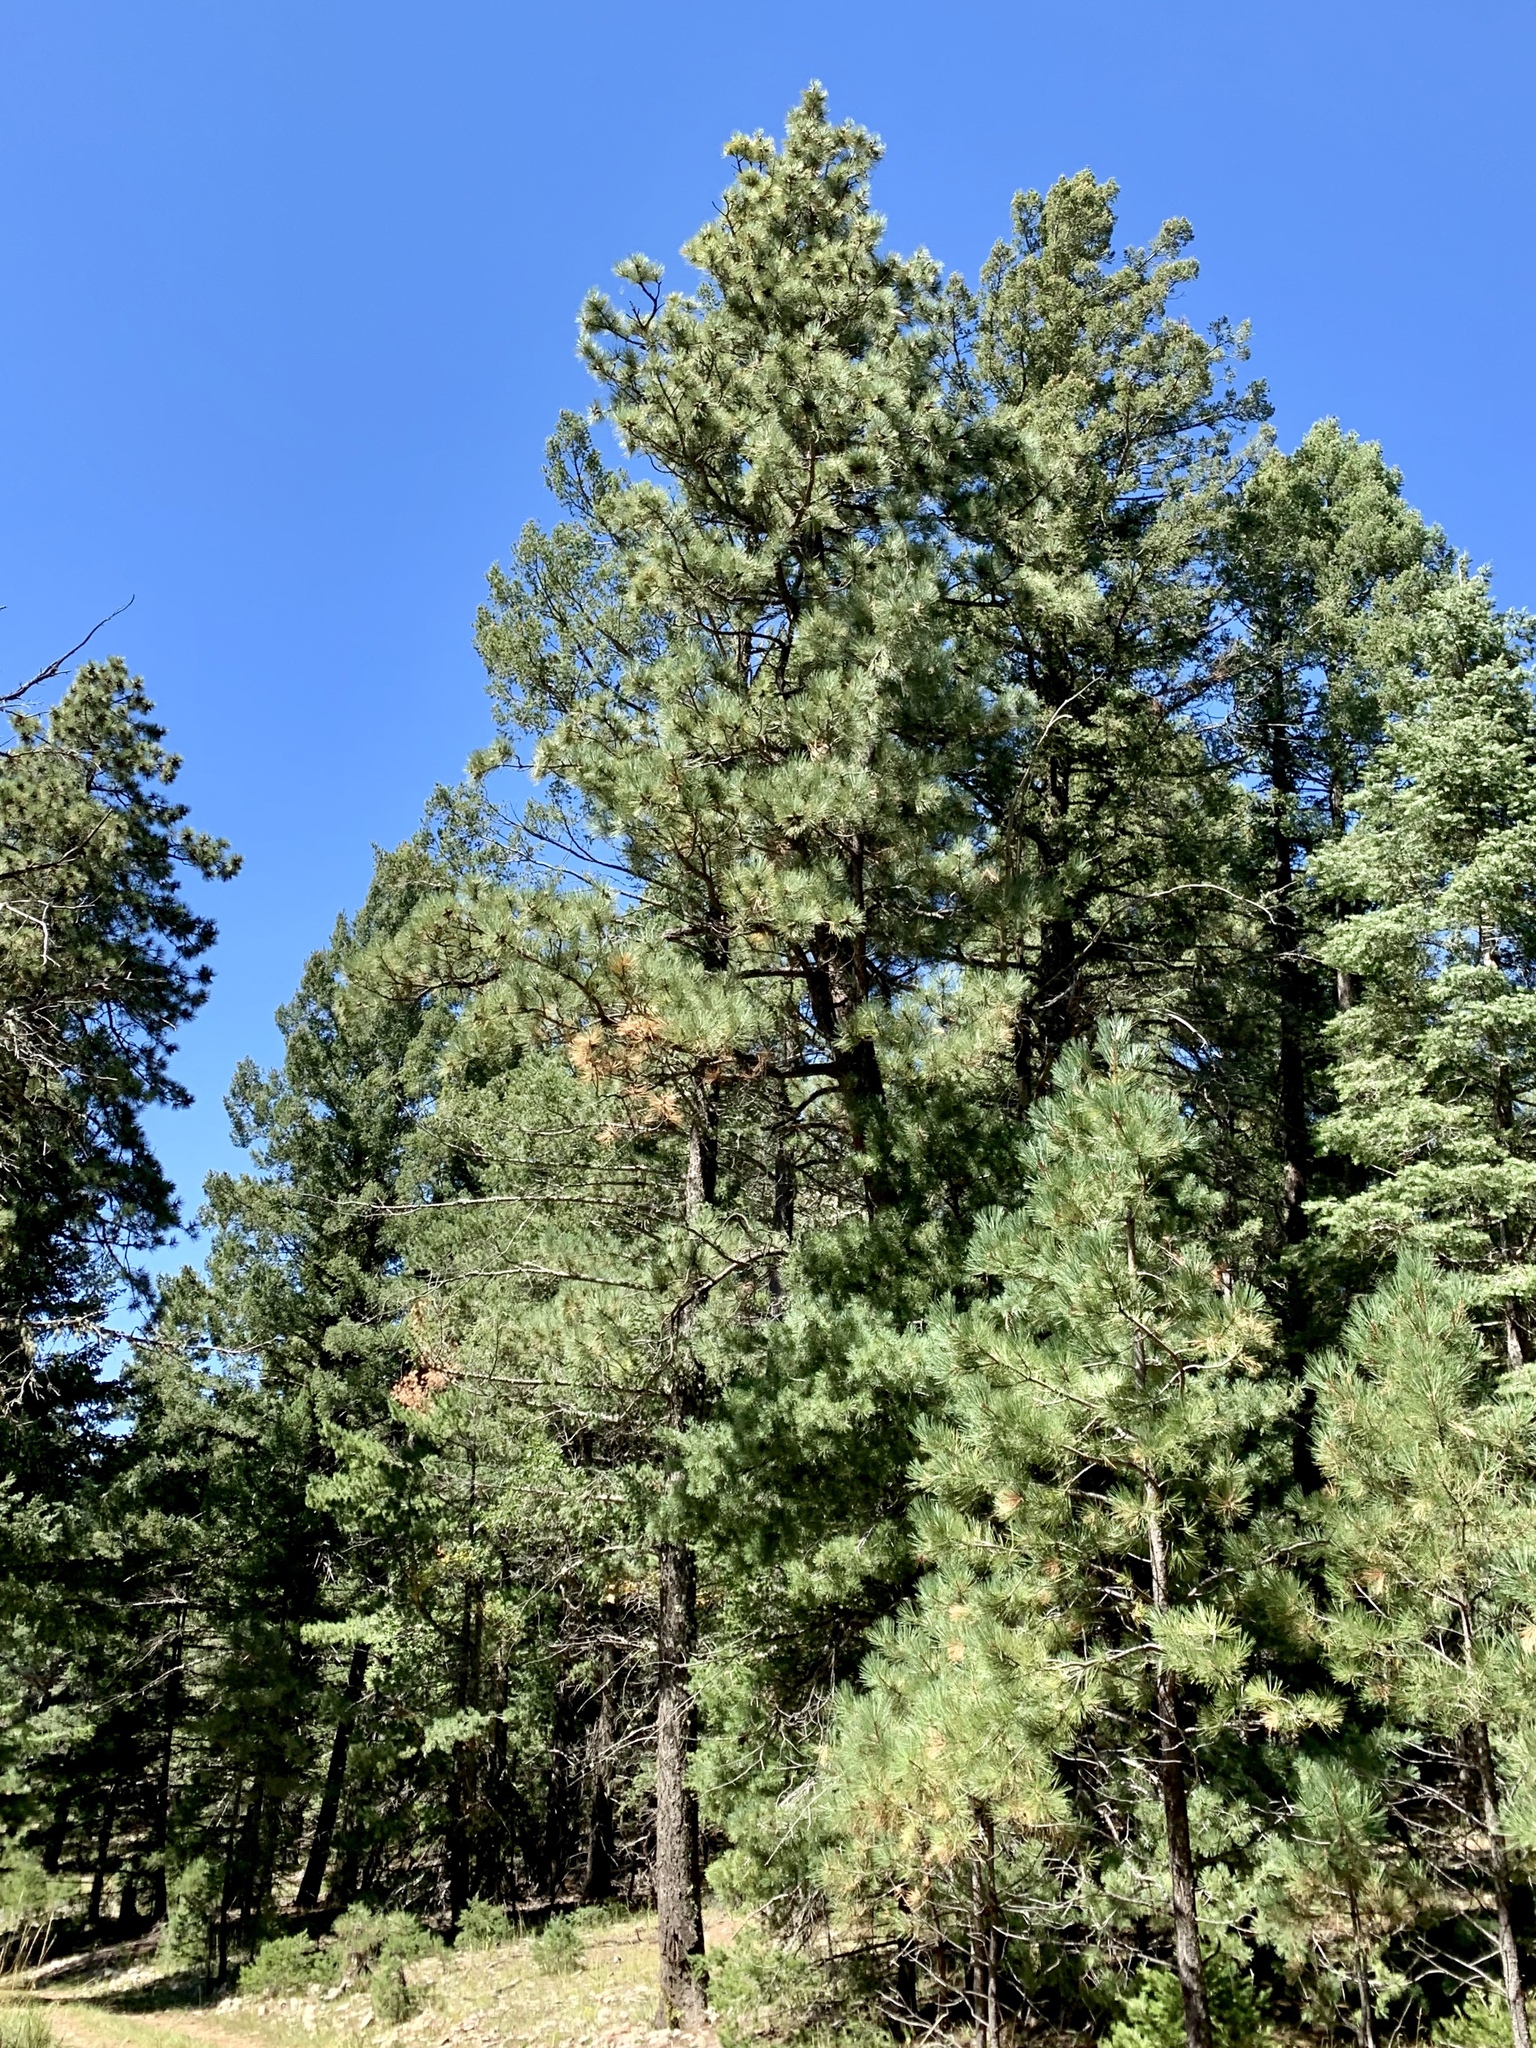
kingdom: Plantae
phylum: Tracheophyta
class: Pinopsida
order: Pinales
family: Pinaceae
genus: Pinus
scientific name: Pinus strobiformis
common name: Southwestern white pine
